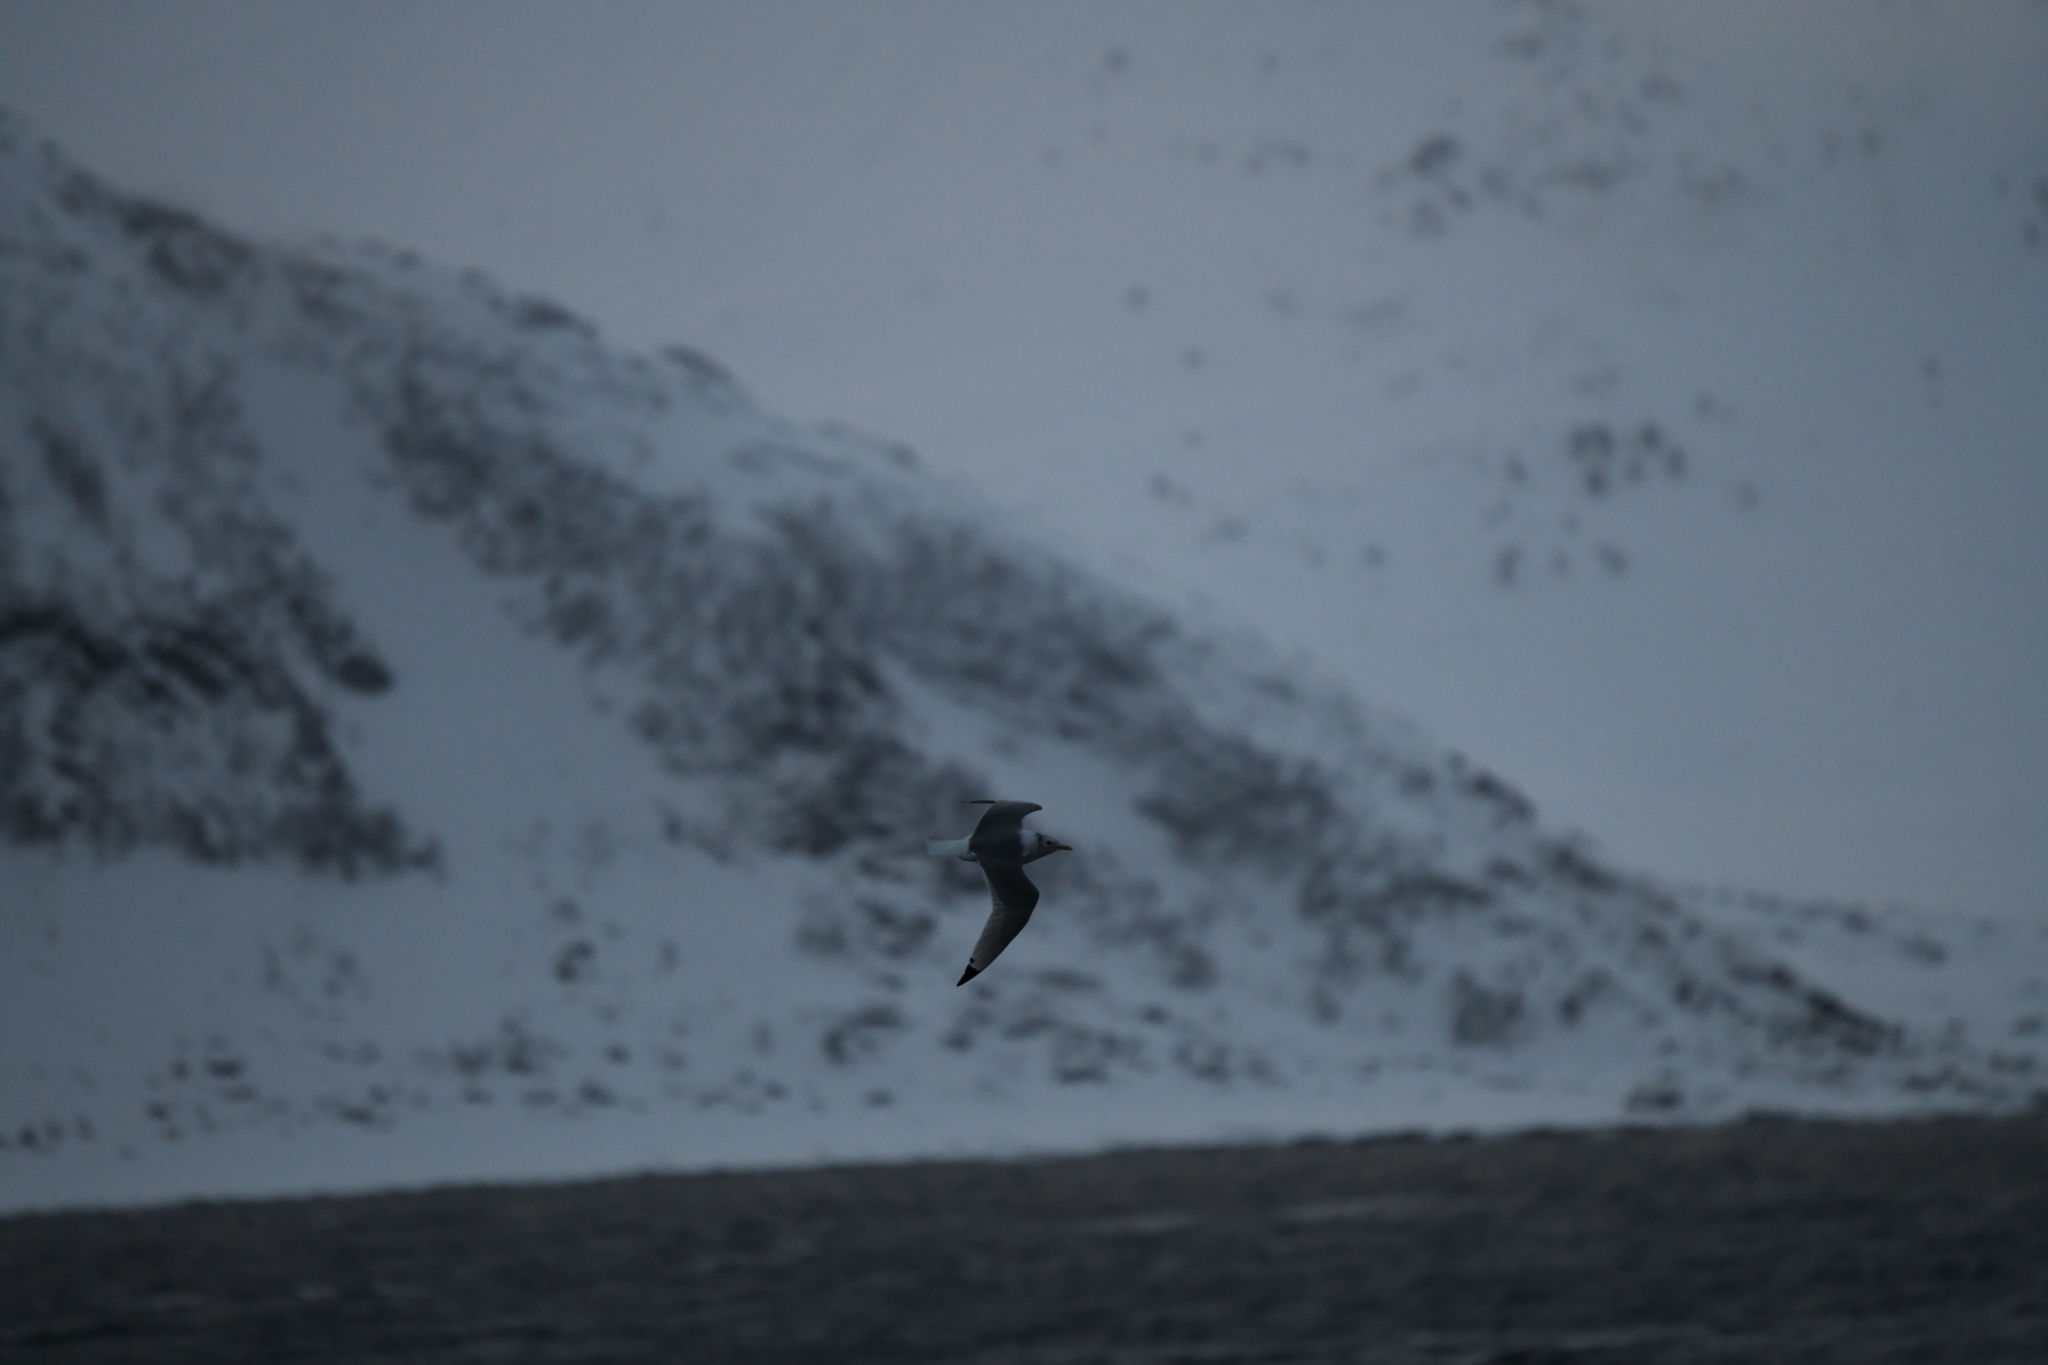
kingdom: Animalia
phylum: Chordata
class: Aves
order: Charadriiformes
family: Laridae
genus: Rissa
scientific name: Rissa tridactyla
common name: Black-legged kittiwake
